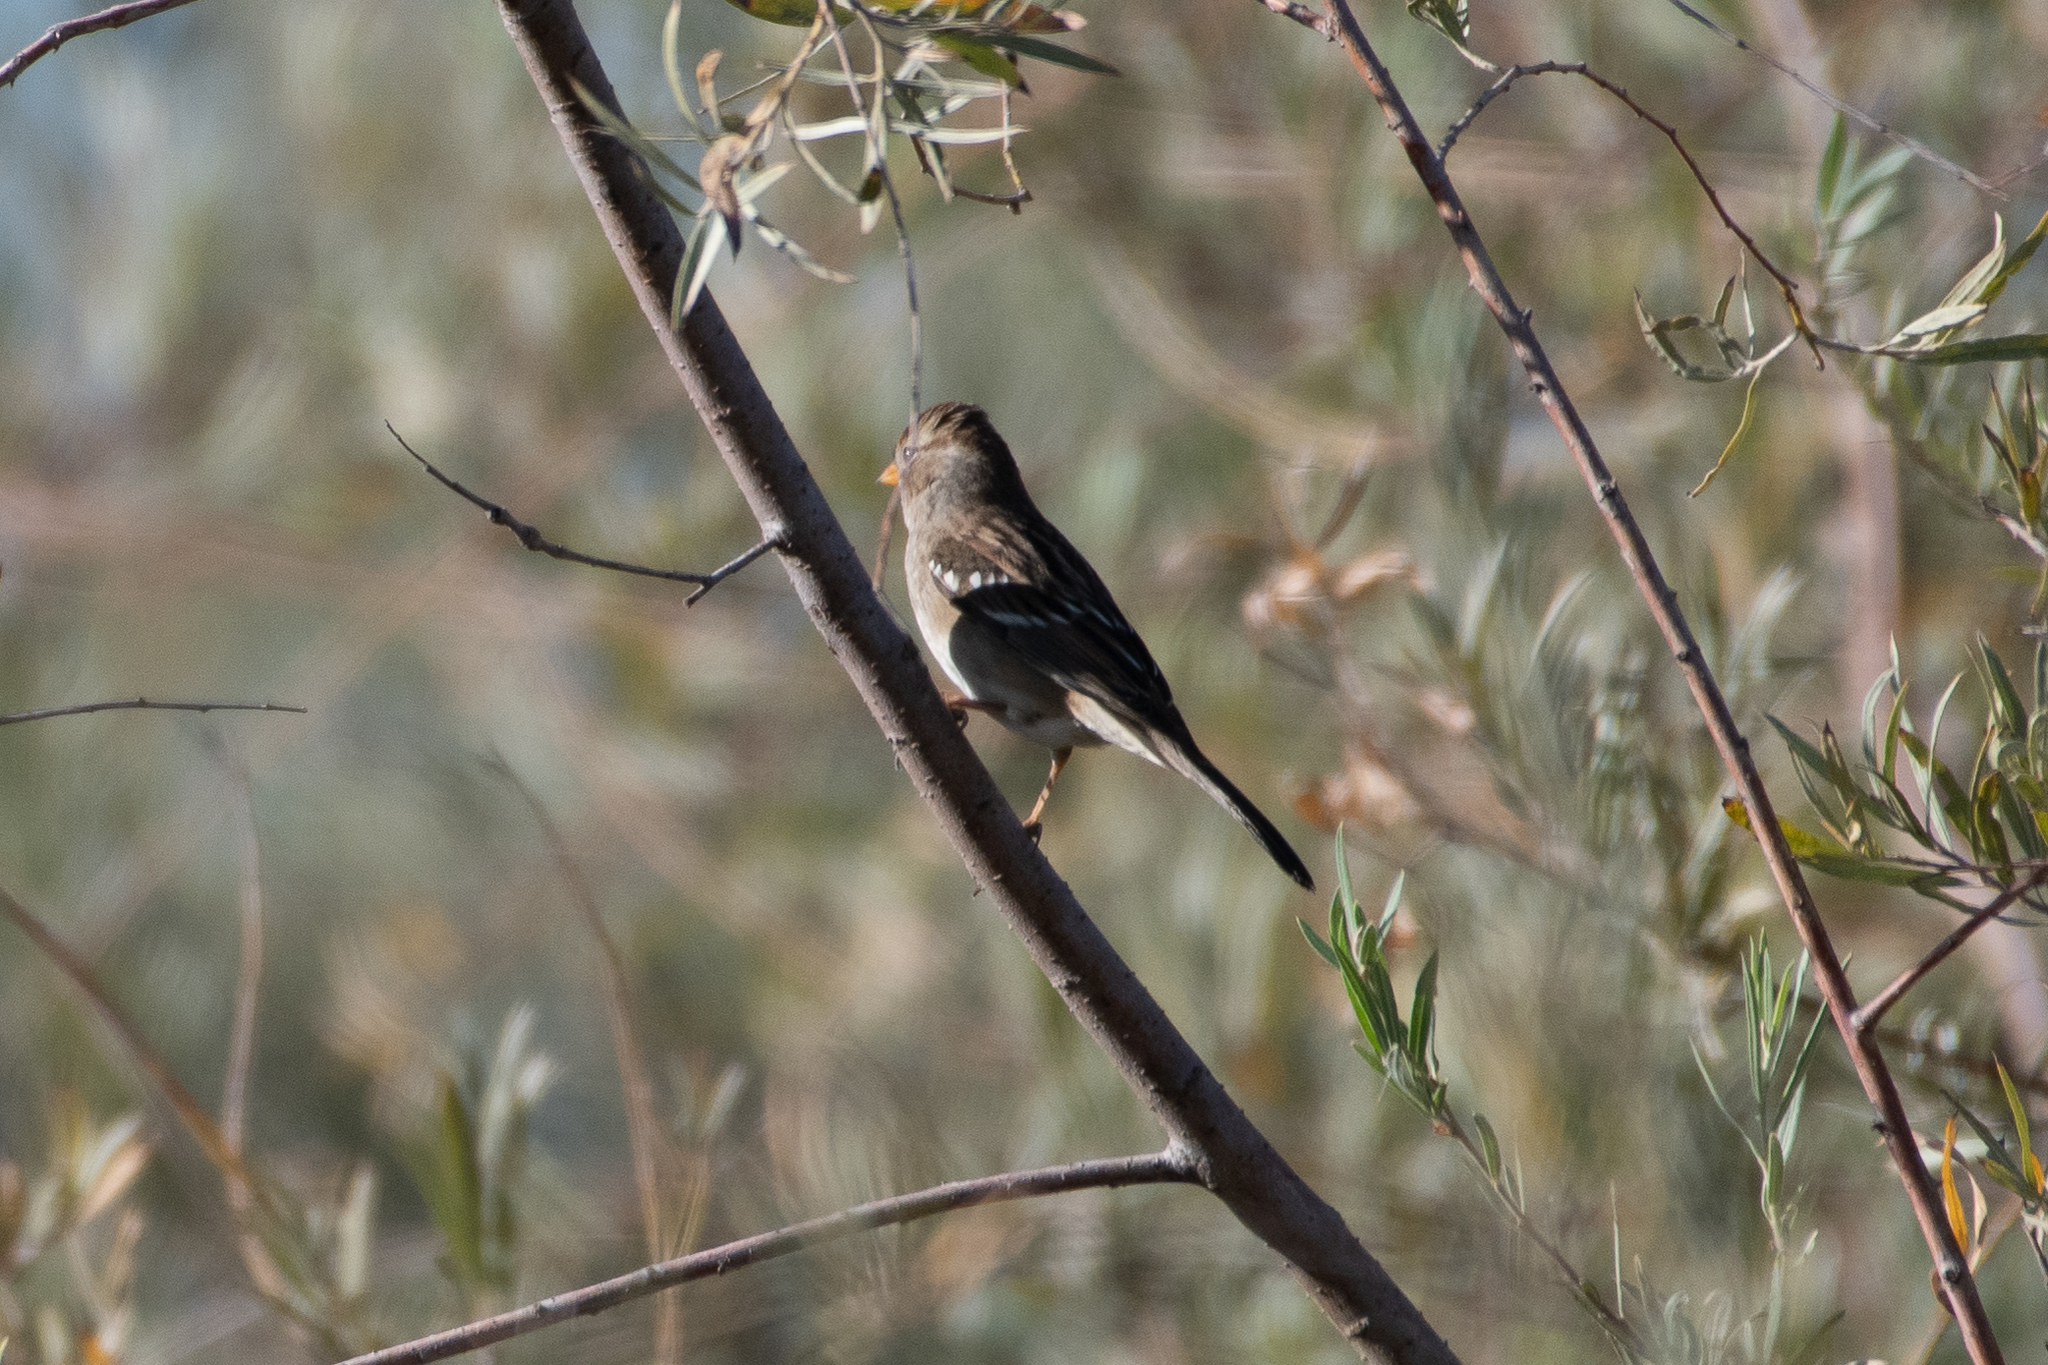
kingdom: Animalia
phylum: Chordata
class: Aves
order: Passeriformes
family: Passerellidae
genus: Zonotrichia
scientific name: Zonotrichia leucophrys
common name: White-crowned sparrow
